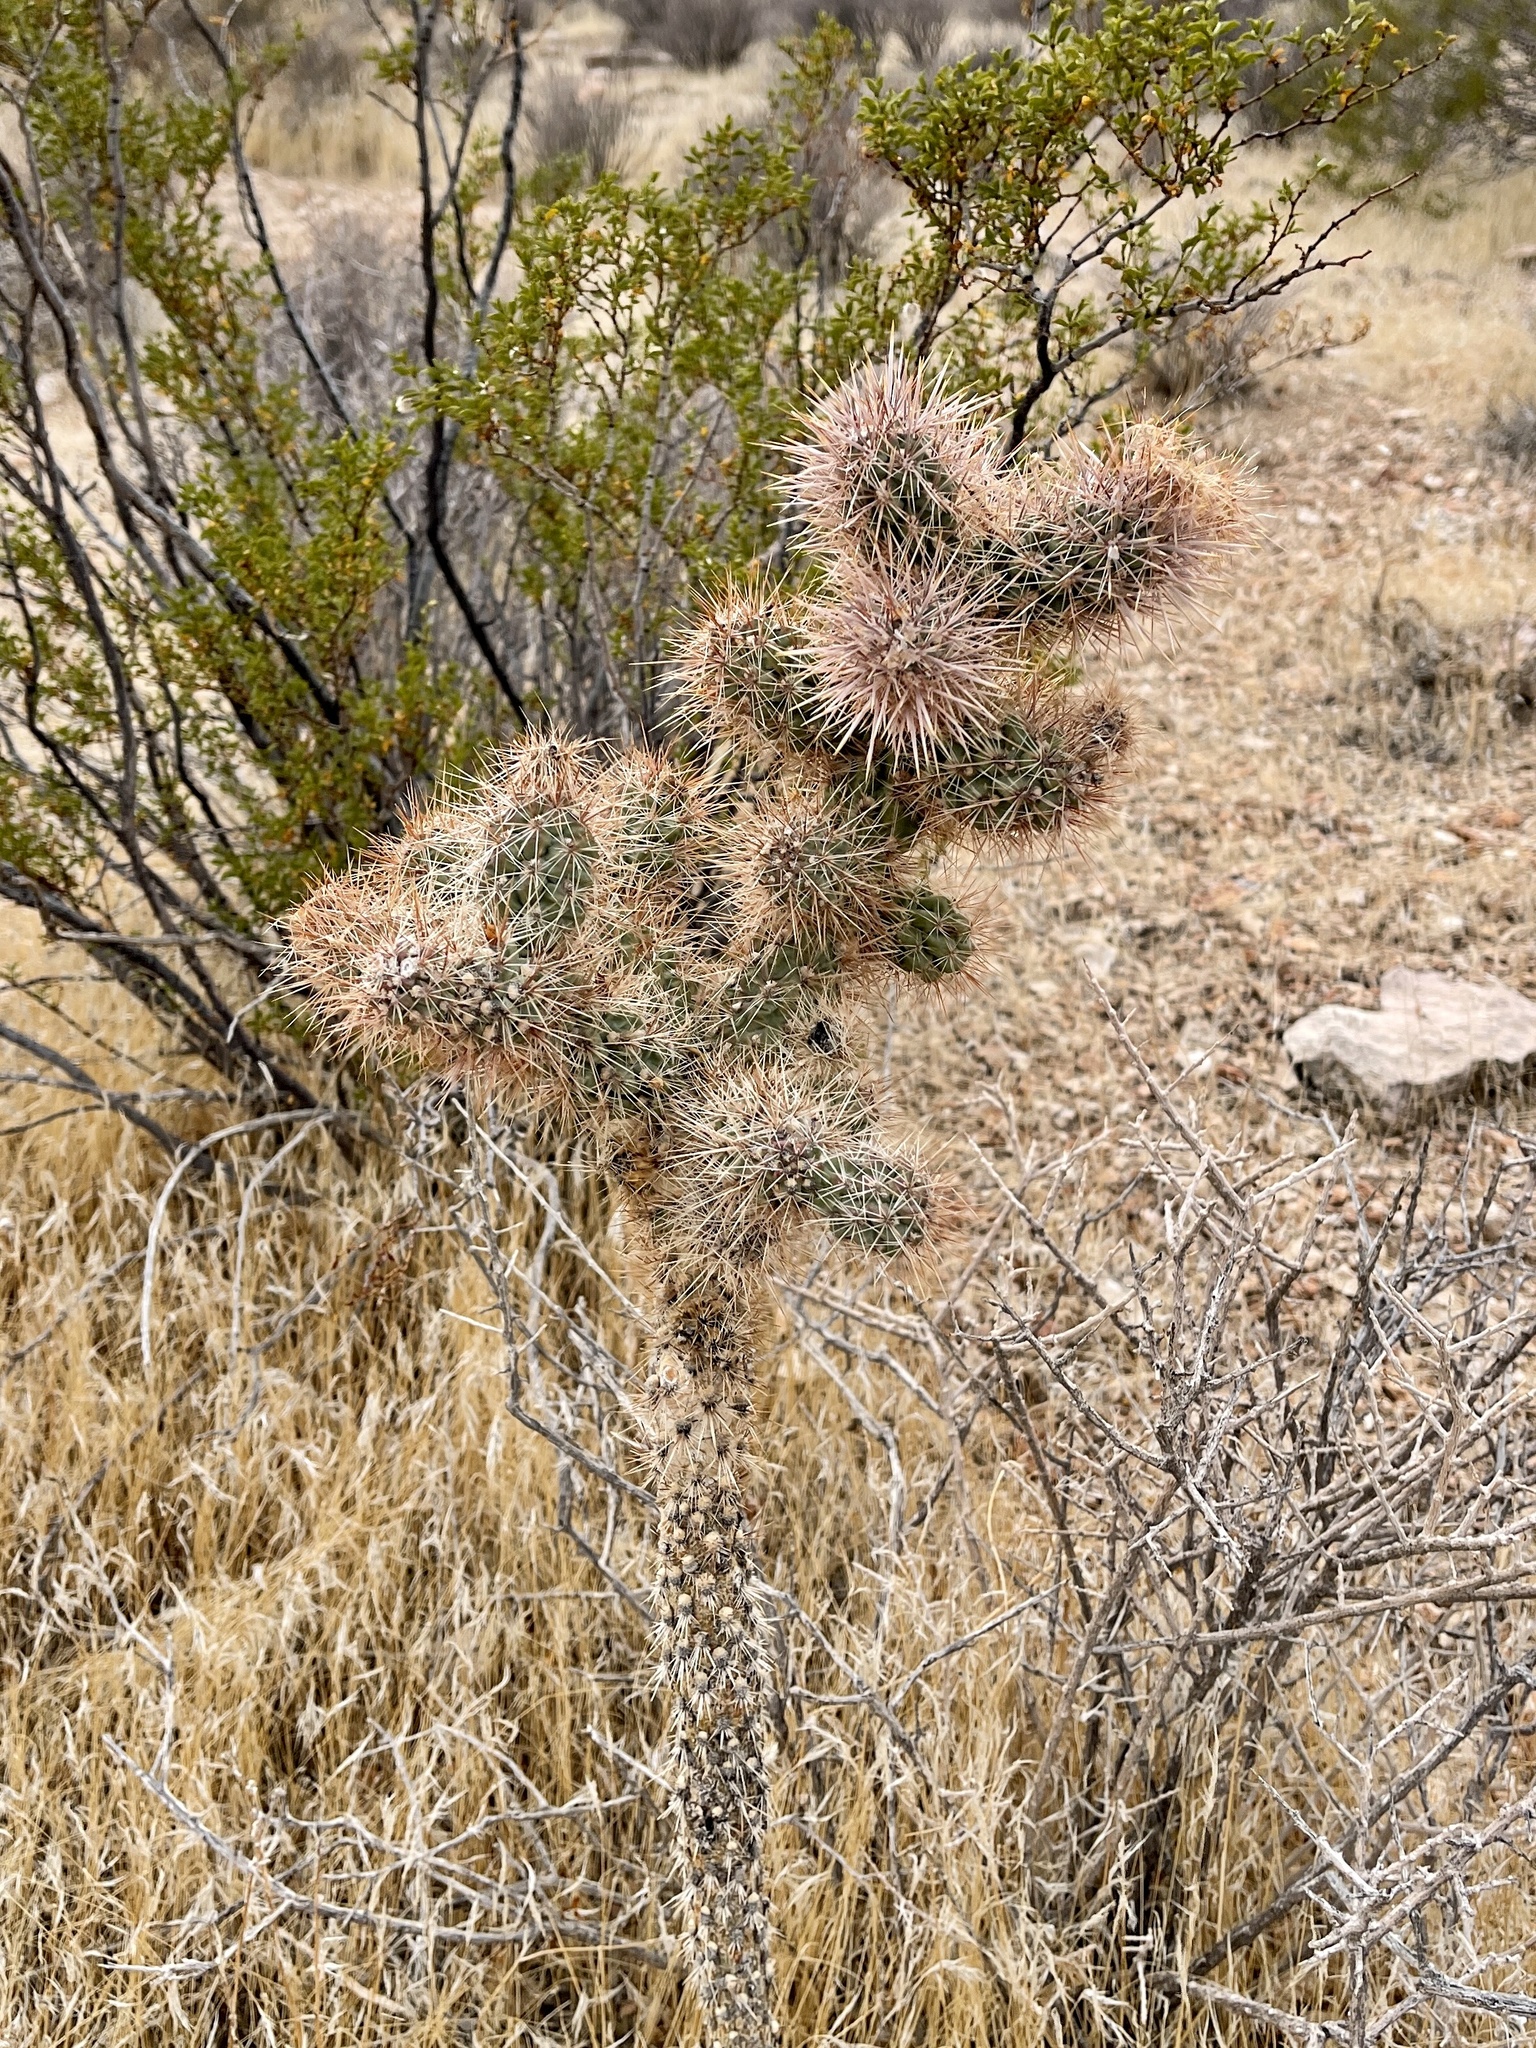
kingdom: Plantae
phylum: Tracheophyta
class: Magnoliopsida
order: Caryophyllales
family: Cactaceae
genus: Cylindropuntia
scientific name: Cylindropuntia echinocarpa
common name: Ground cholla
